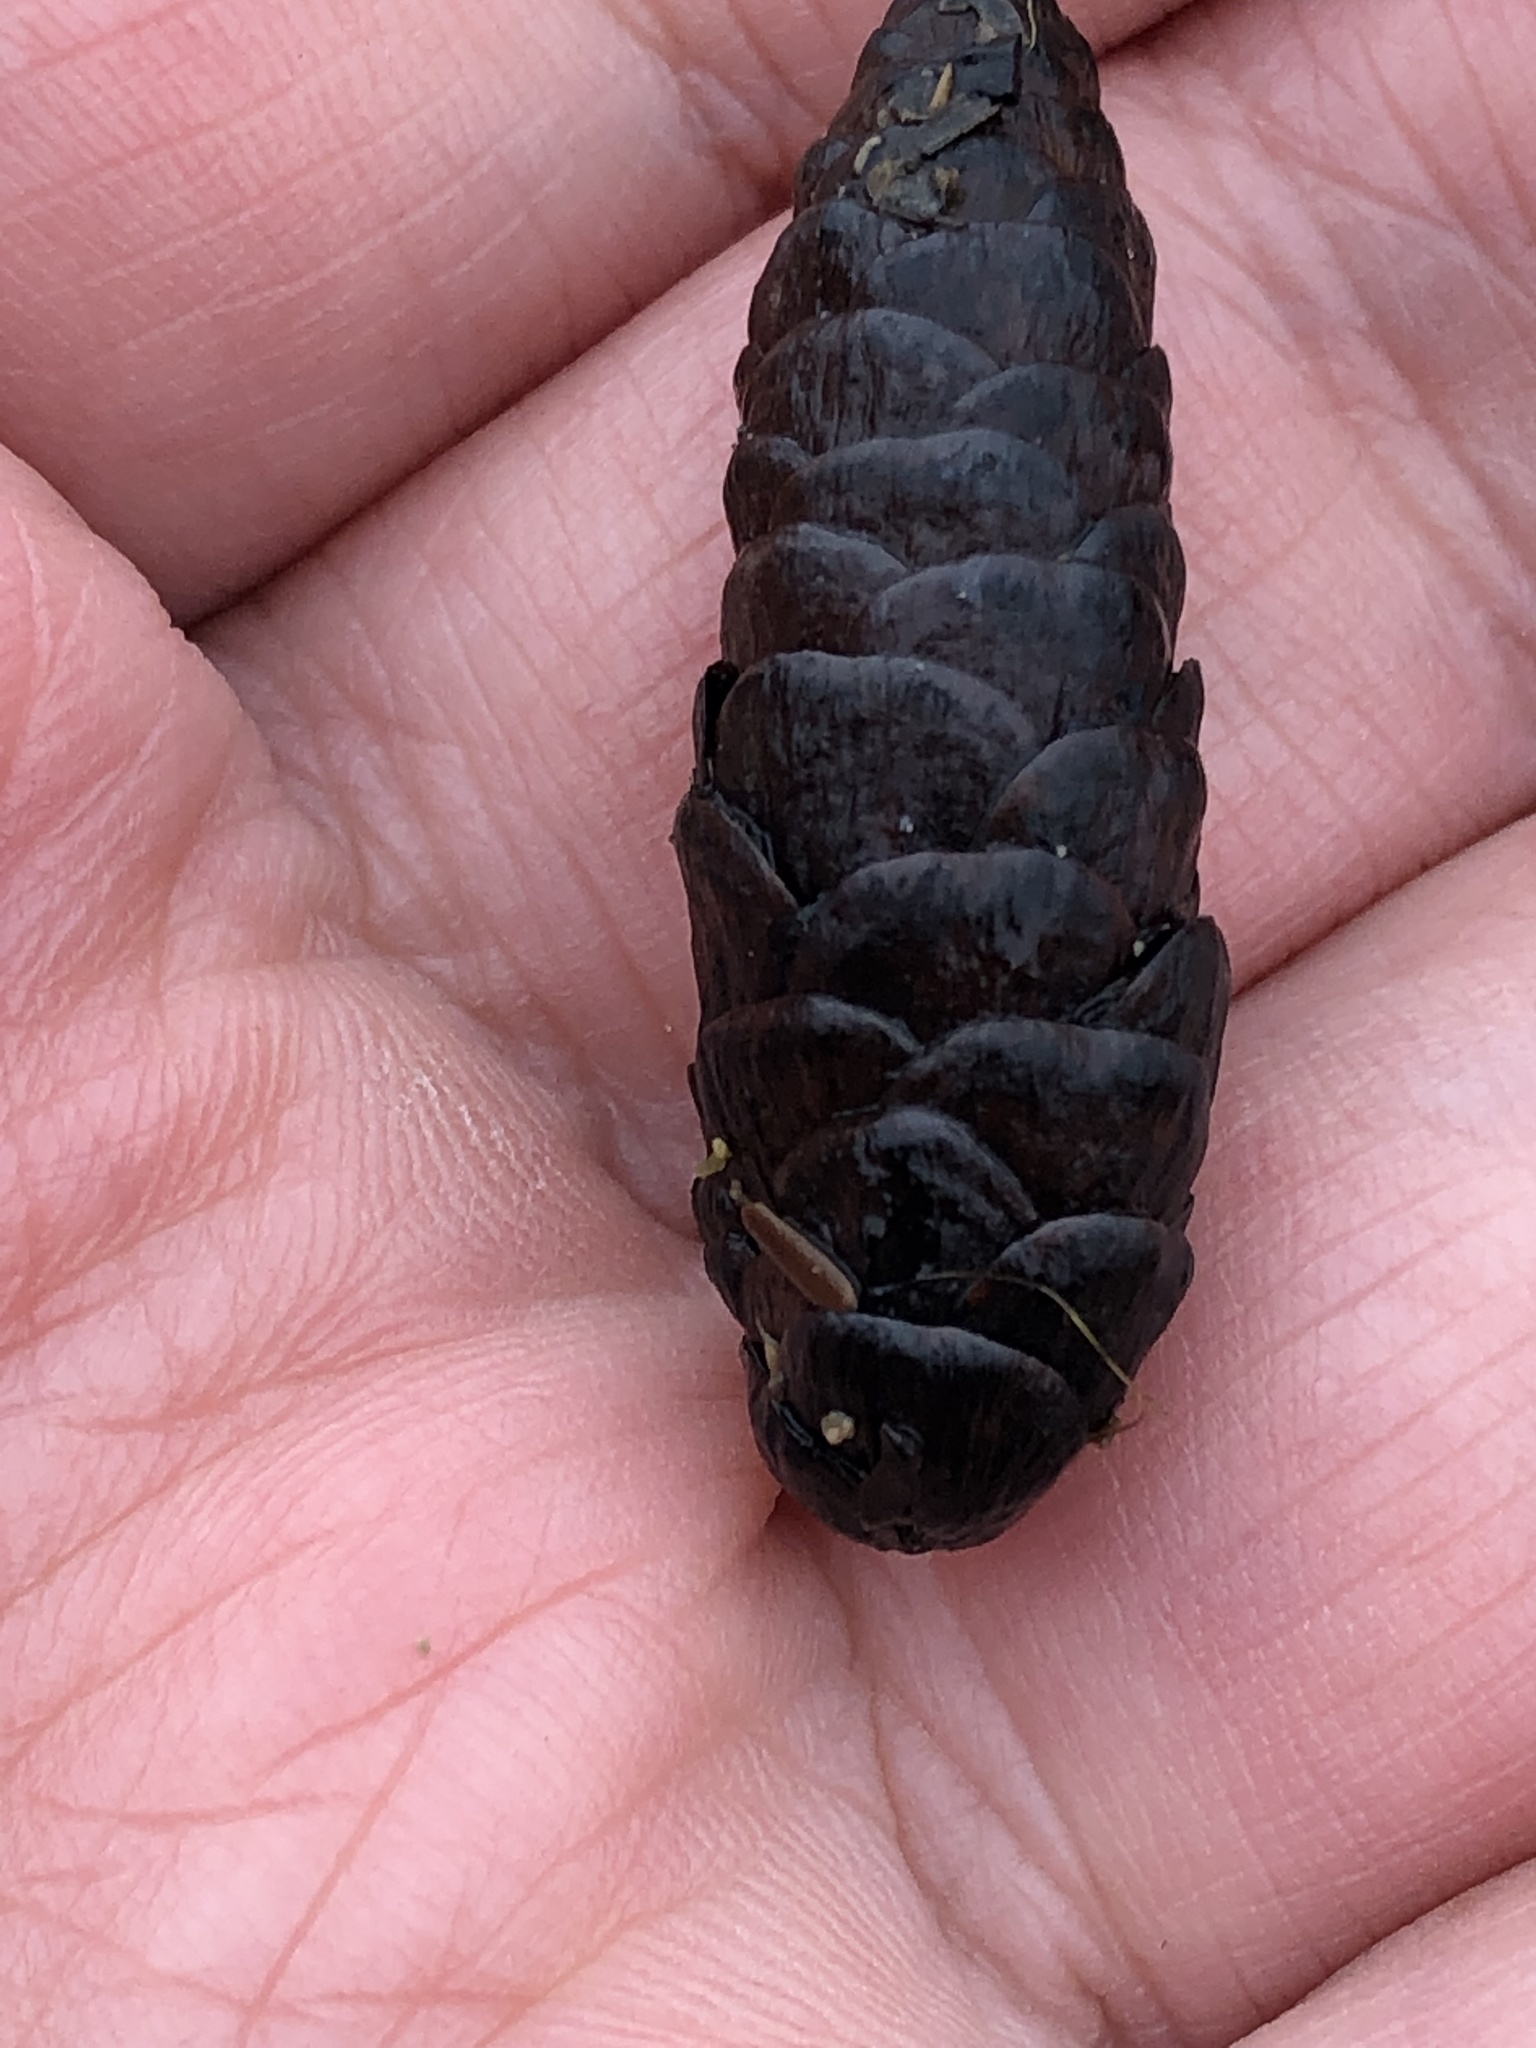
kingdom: Plantae
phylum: Tracheophyta
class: Pinopsida
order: Pinales
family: Pinaceae
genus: Picea
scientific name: Picea glauca
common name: White spruce
